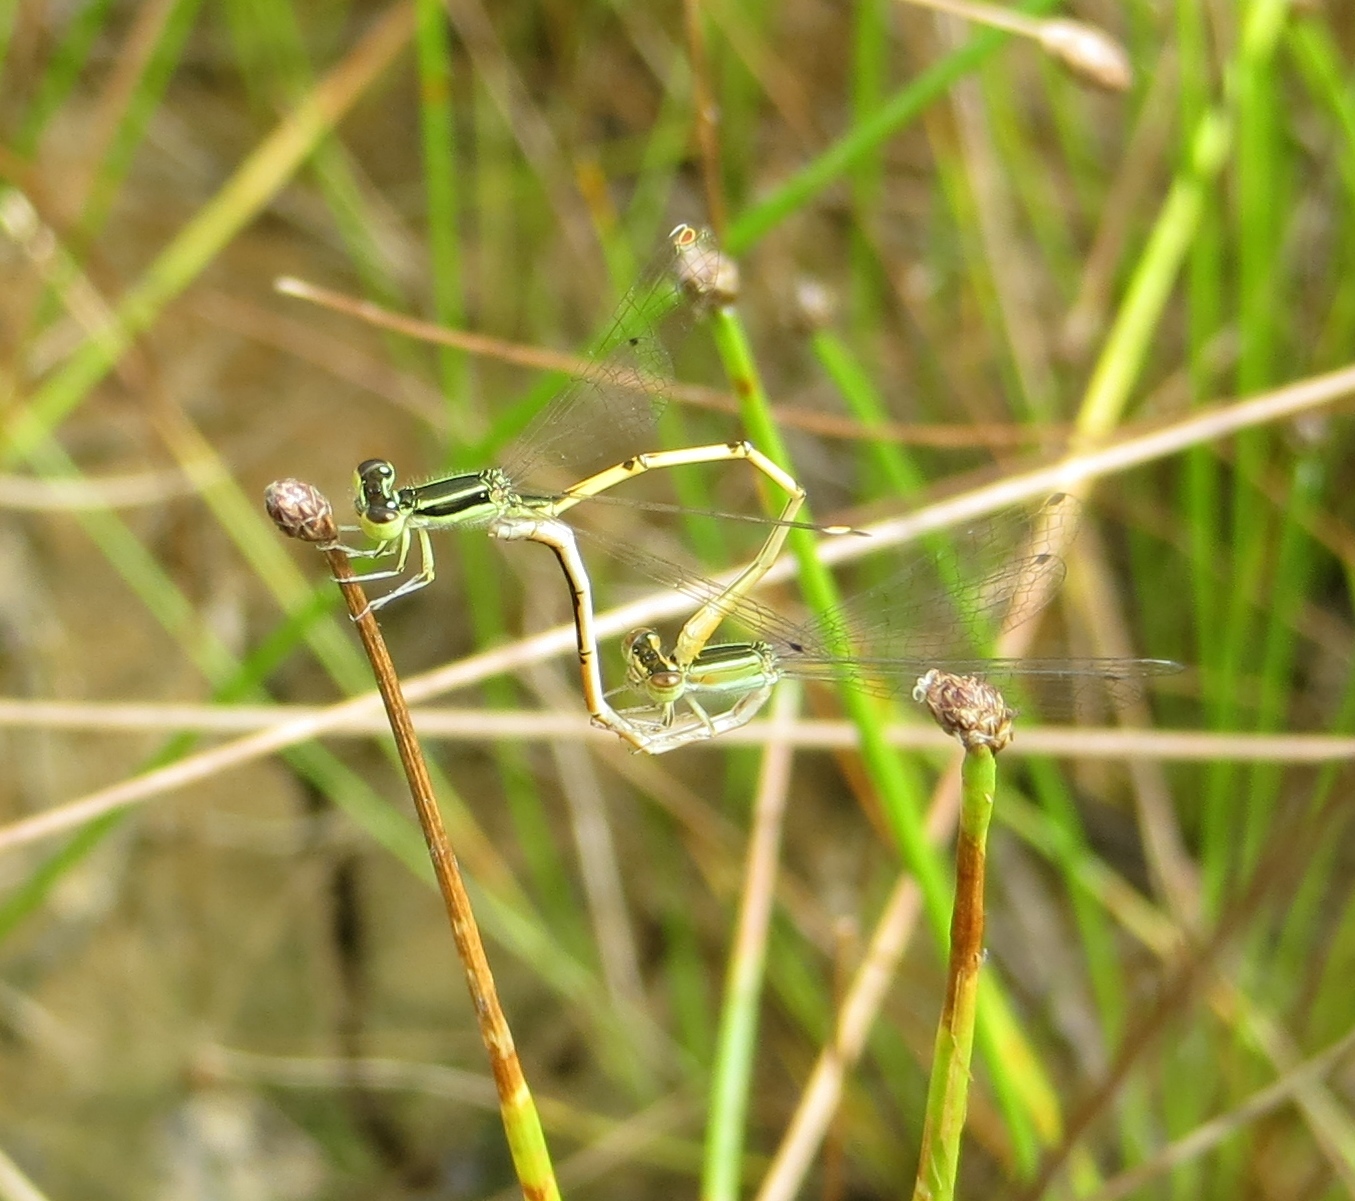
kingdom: Animalia
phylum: Arthropoda
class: Insecta
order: Odonata
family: Coenagrionidae
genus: Ischnura
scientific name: Ischnura hastata
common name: Citrine forktail
